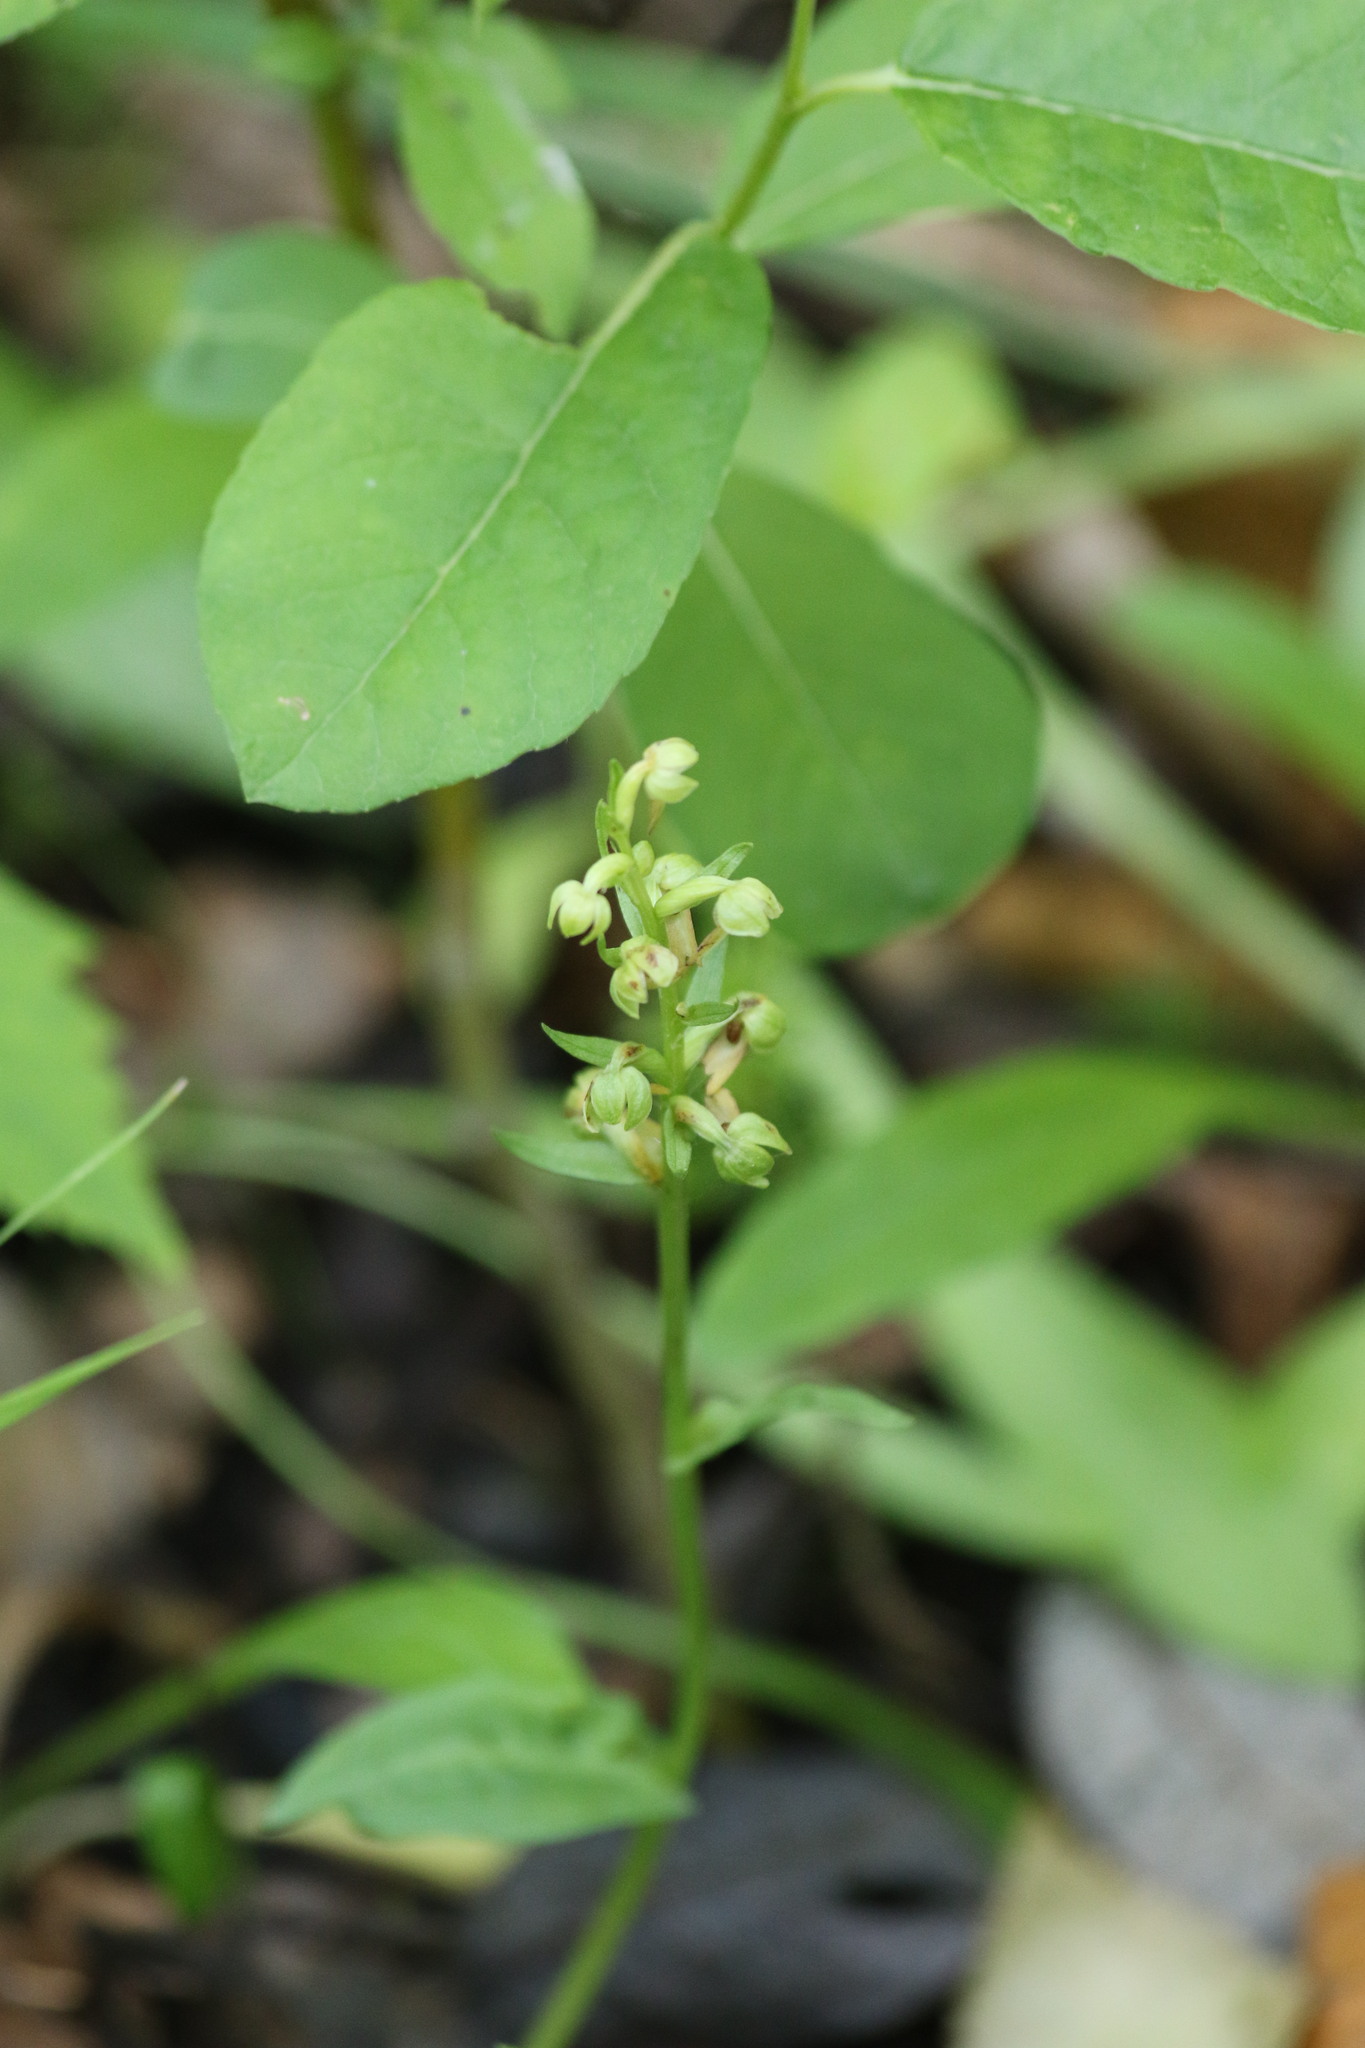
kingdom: Plantae
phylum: Tracheophyta
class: Liliopsida
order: Asparagales
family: Orchidaceae
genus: Dactylorhiza
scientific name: Dactylorhiza viridis
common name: Longbract frog orchid
